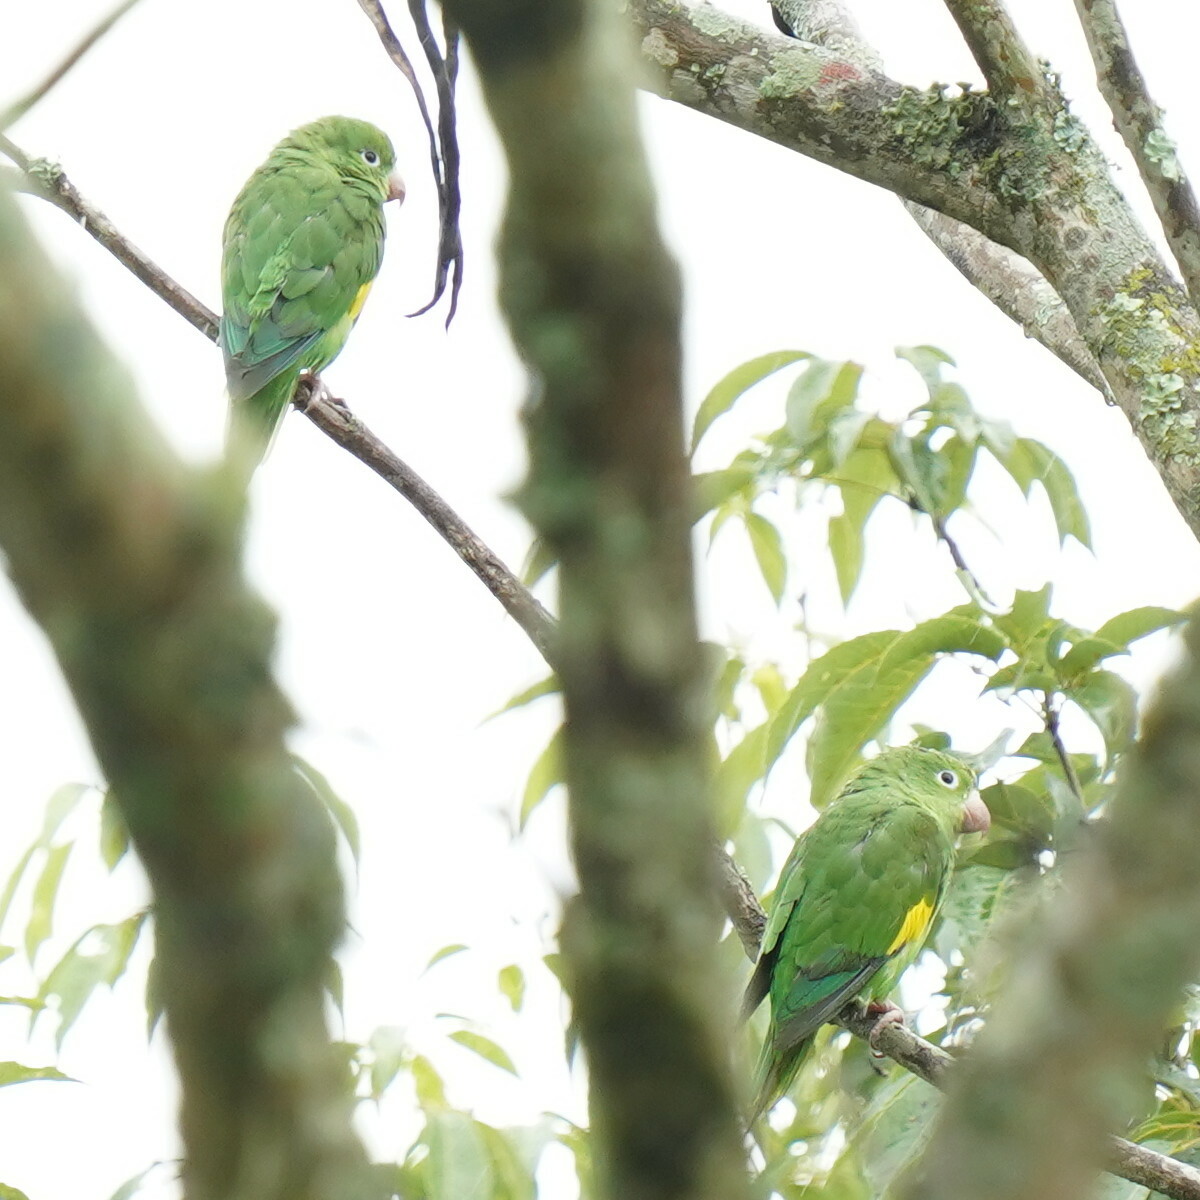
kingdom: Animalia
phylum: Chordata
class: Aves
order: Psittaciformes
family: Psittacidae
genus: Brotogeris
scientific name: Brotogeris chiriri
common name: Yellow-chevroned parakeet
